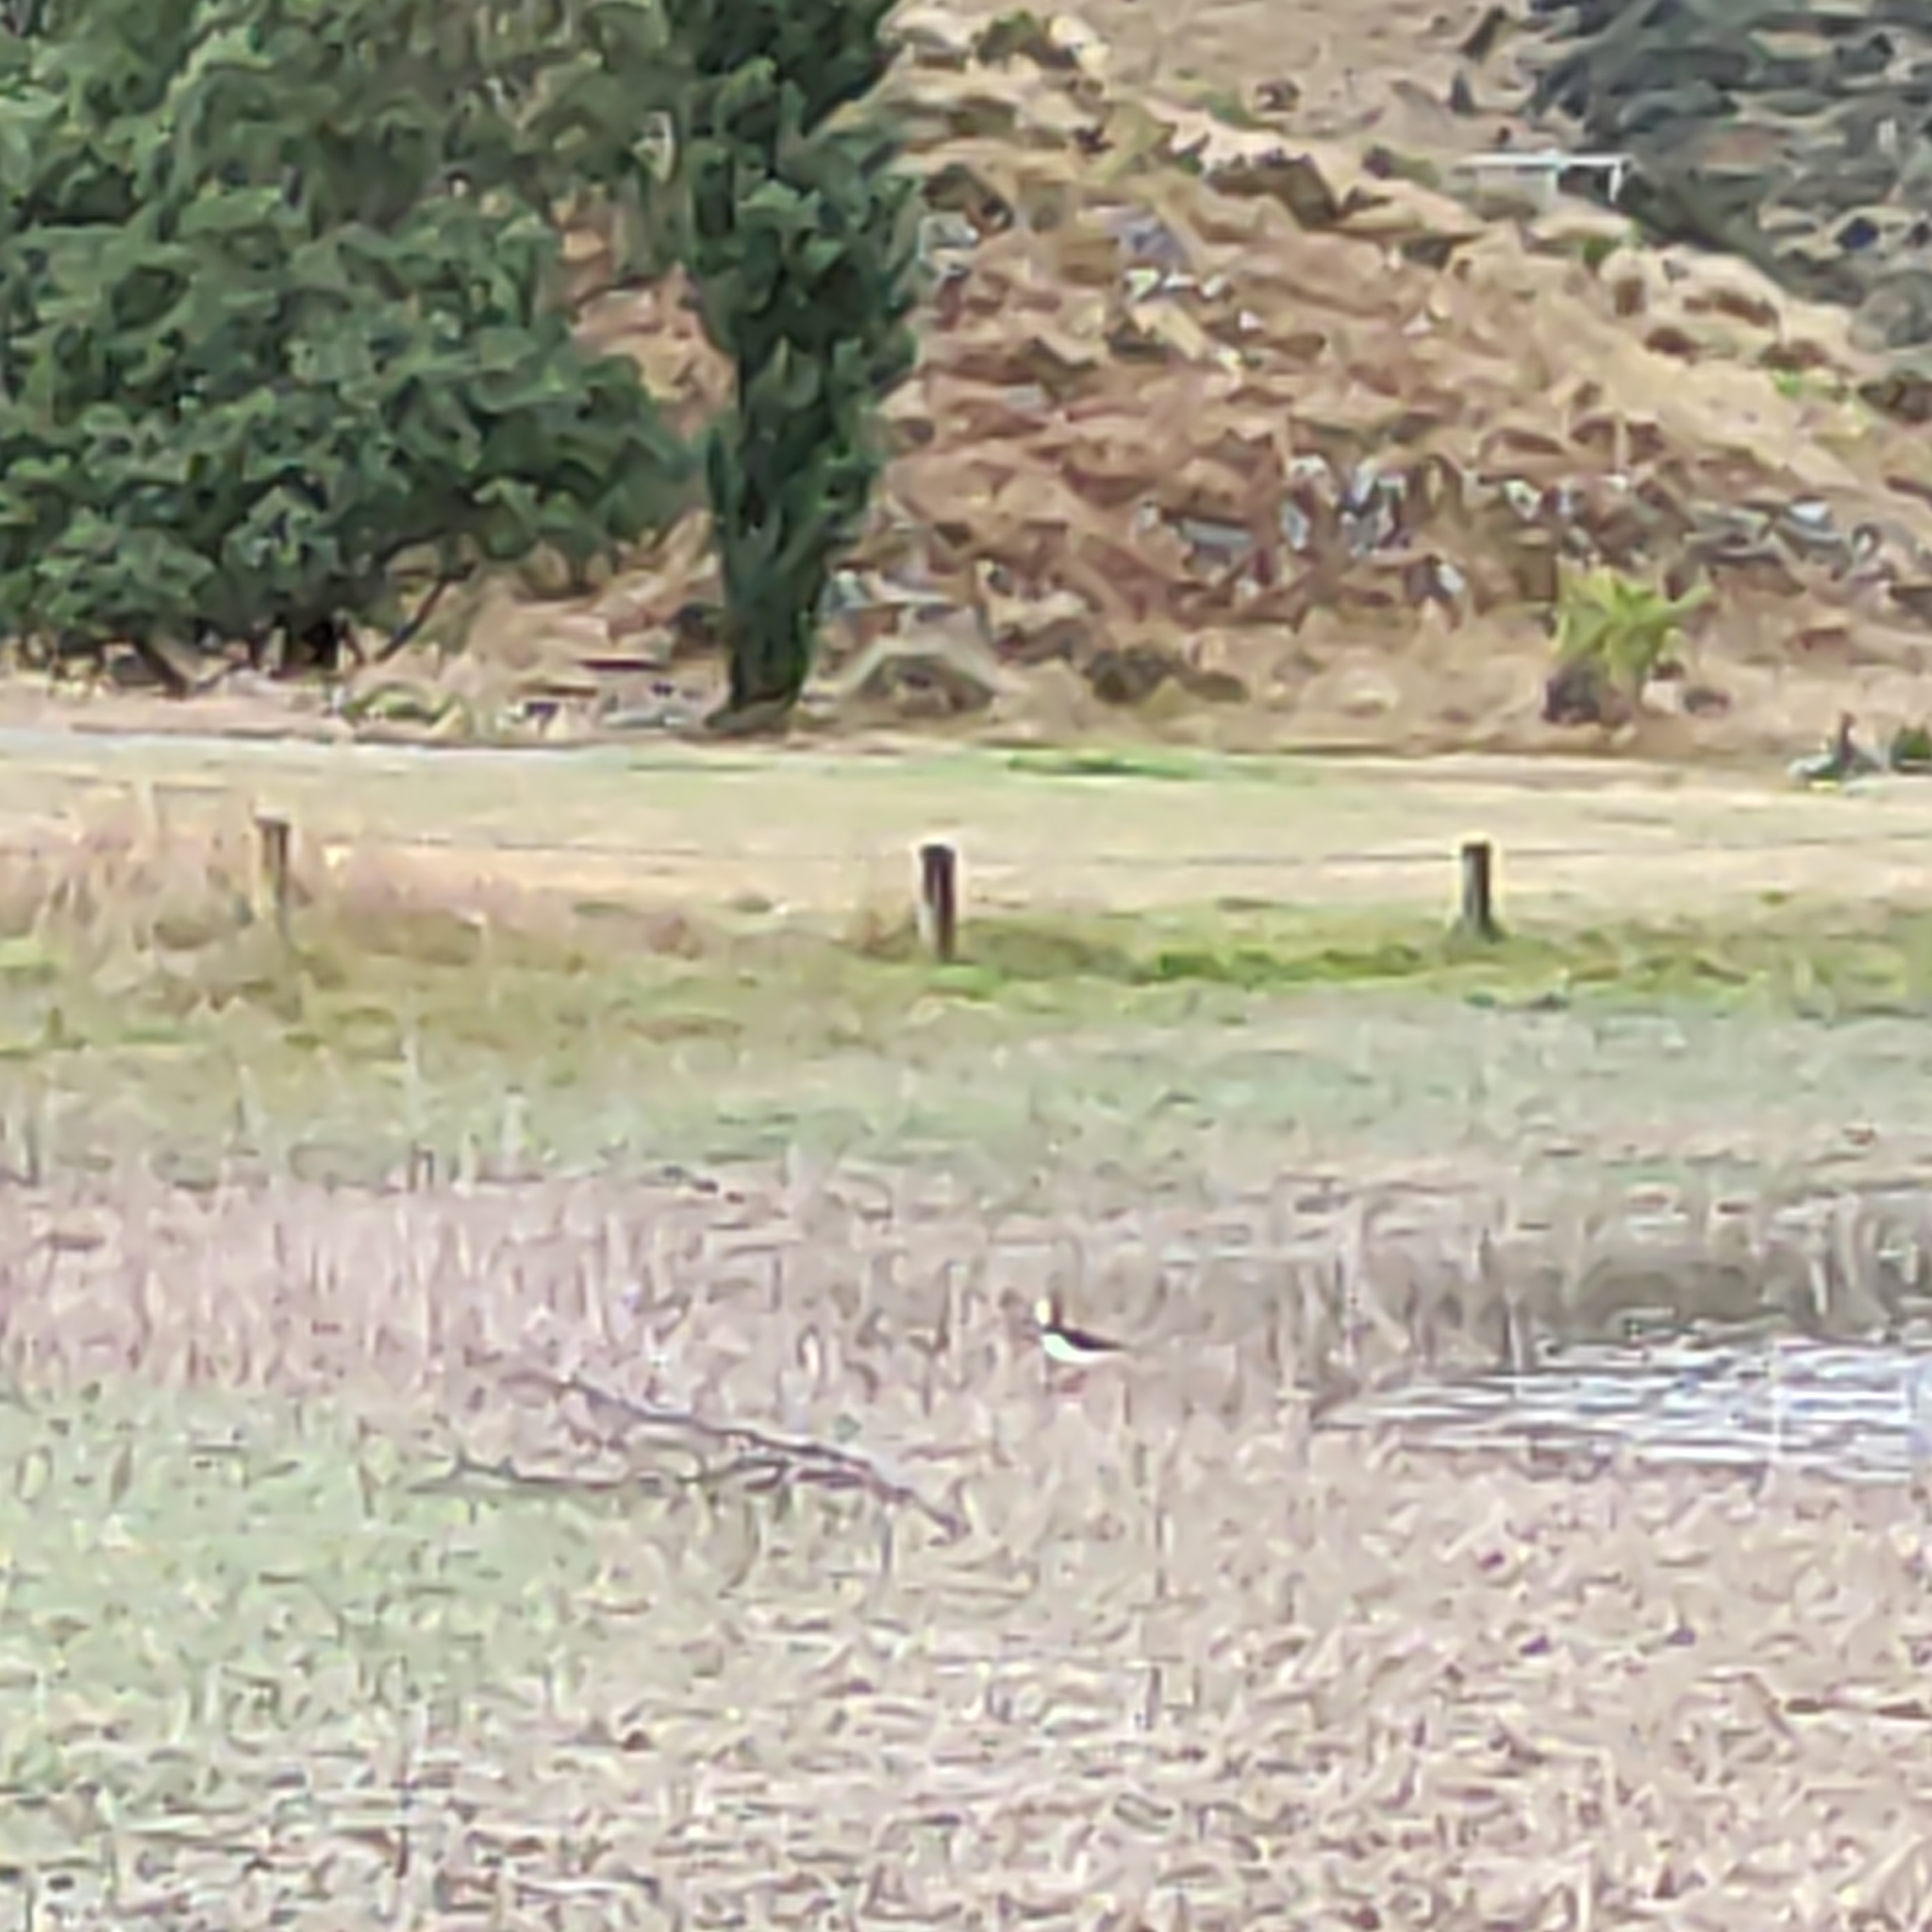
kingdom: Animalia
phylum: Chordata
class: Aves
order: Charadriiformes
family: Recurvirostridae
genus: Himantopus
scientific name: Himantopus leucocephalus
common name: White-headed stilt
